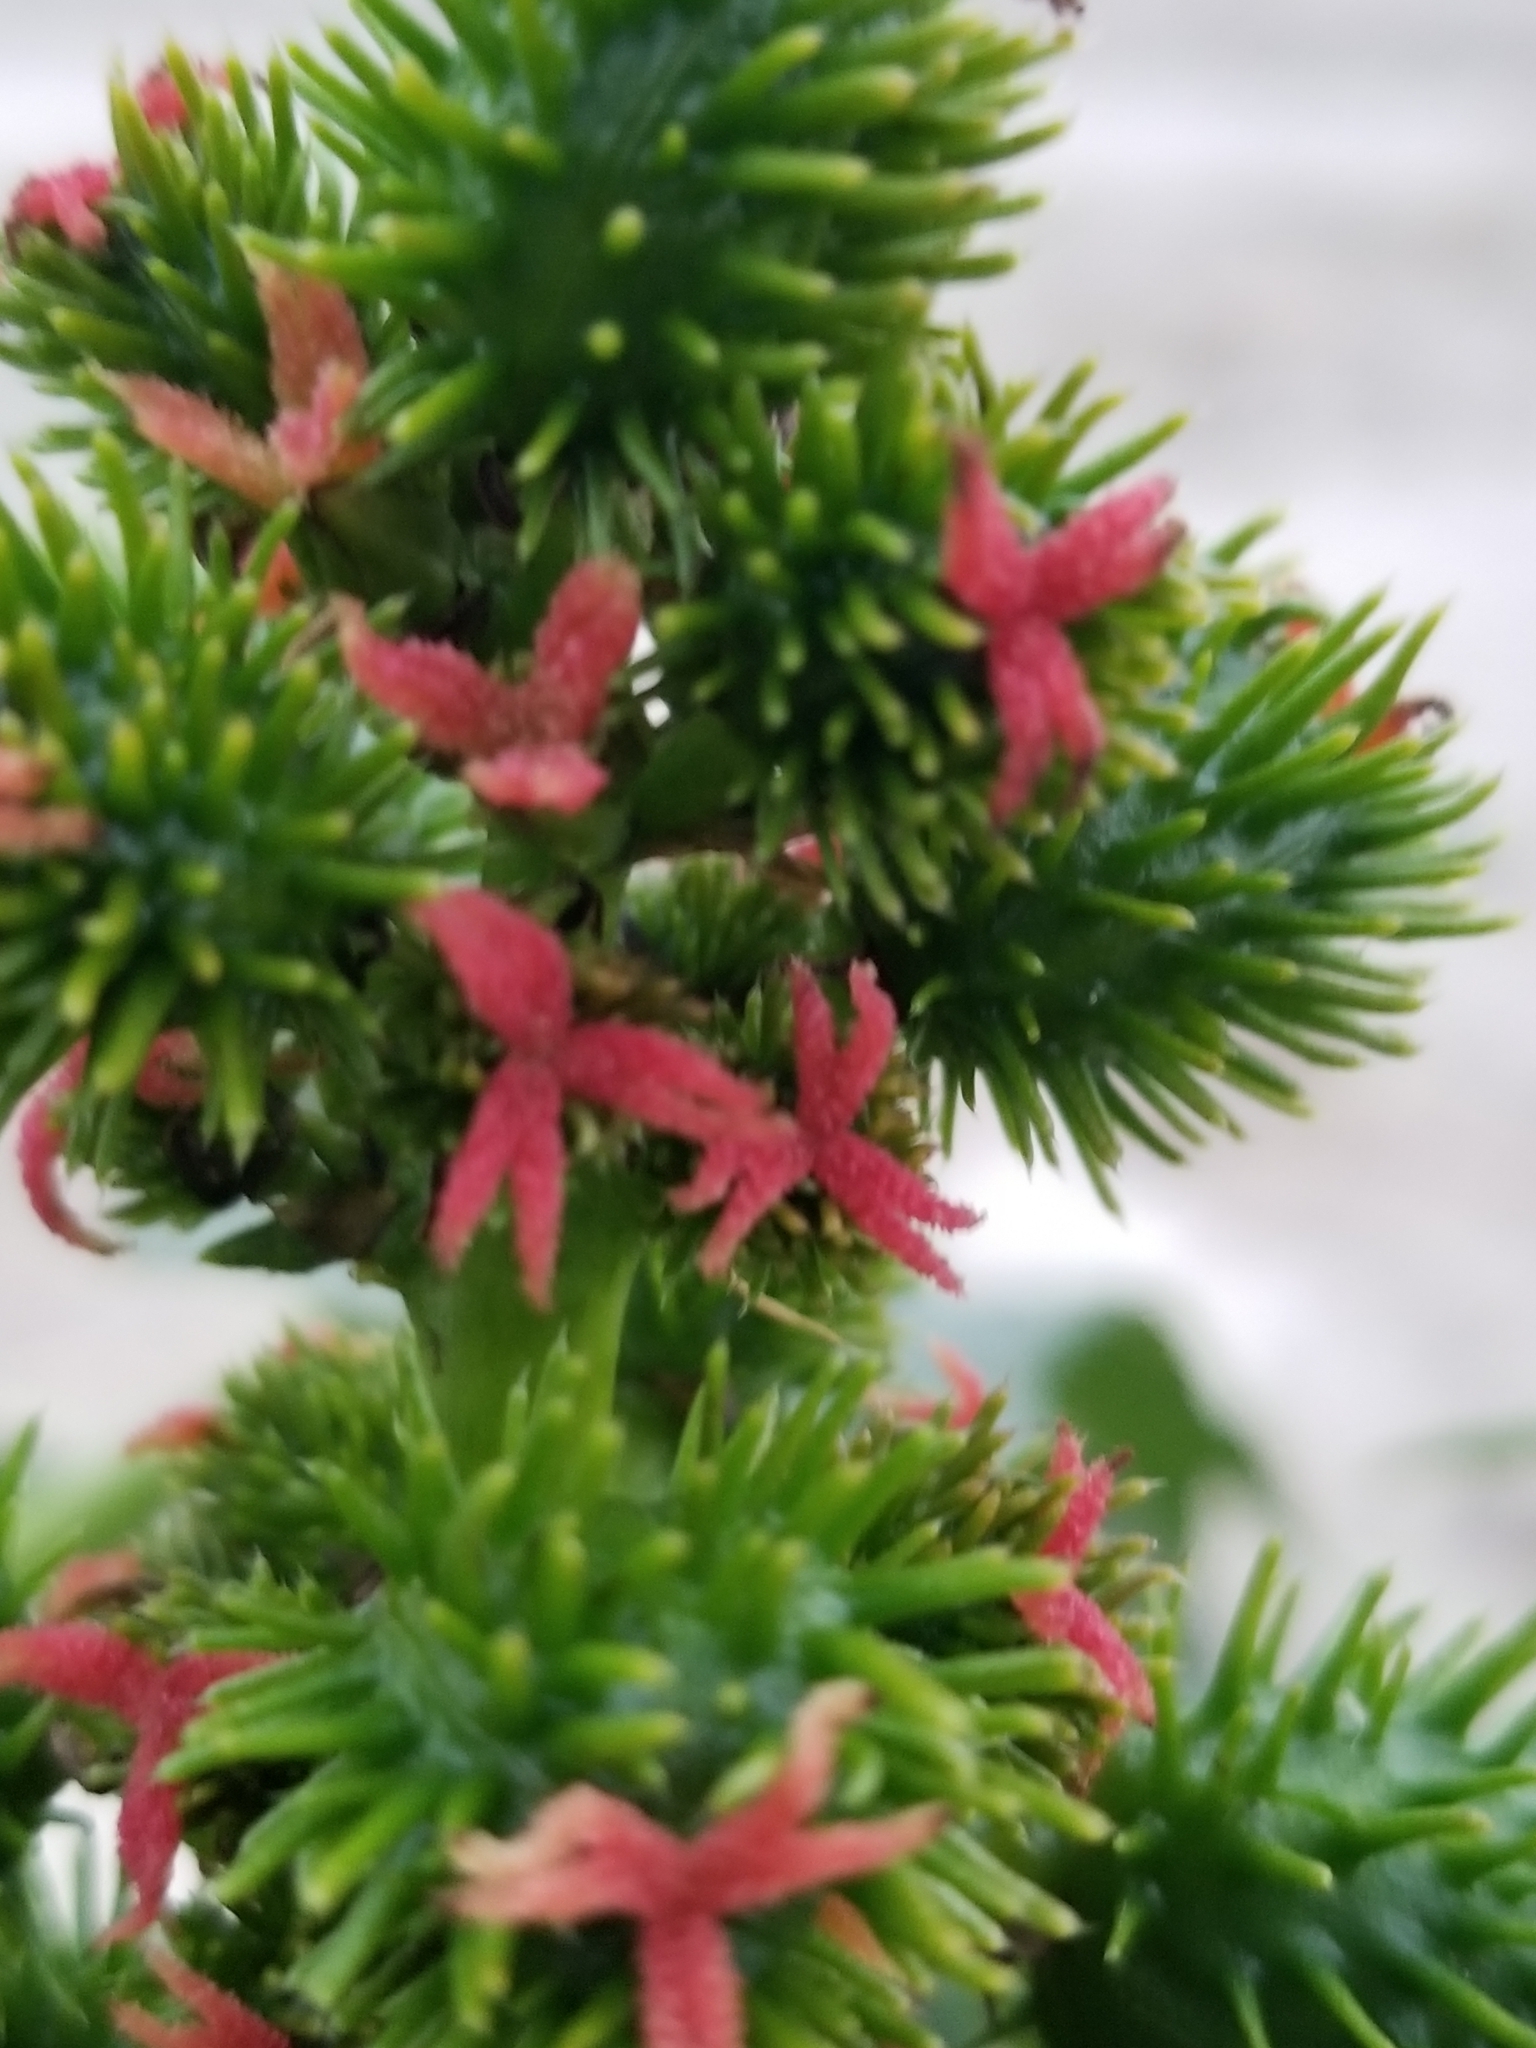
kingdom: Plantae
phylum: Tracheophyta
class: Magnoliopsida
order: Malpighiales
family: Euphorbiaceae
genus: Ricinus
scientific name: Ricinus communis
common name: Castor-oil-plant
